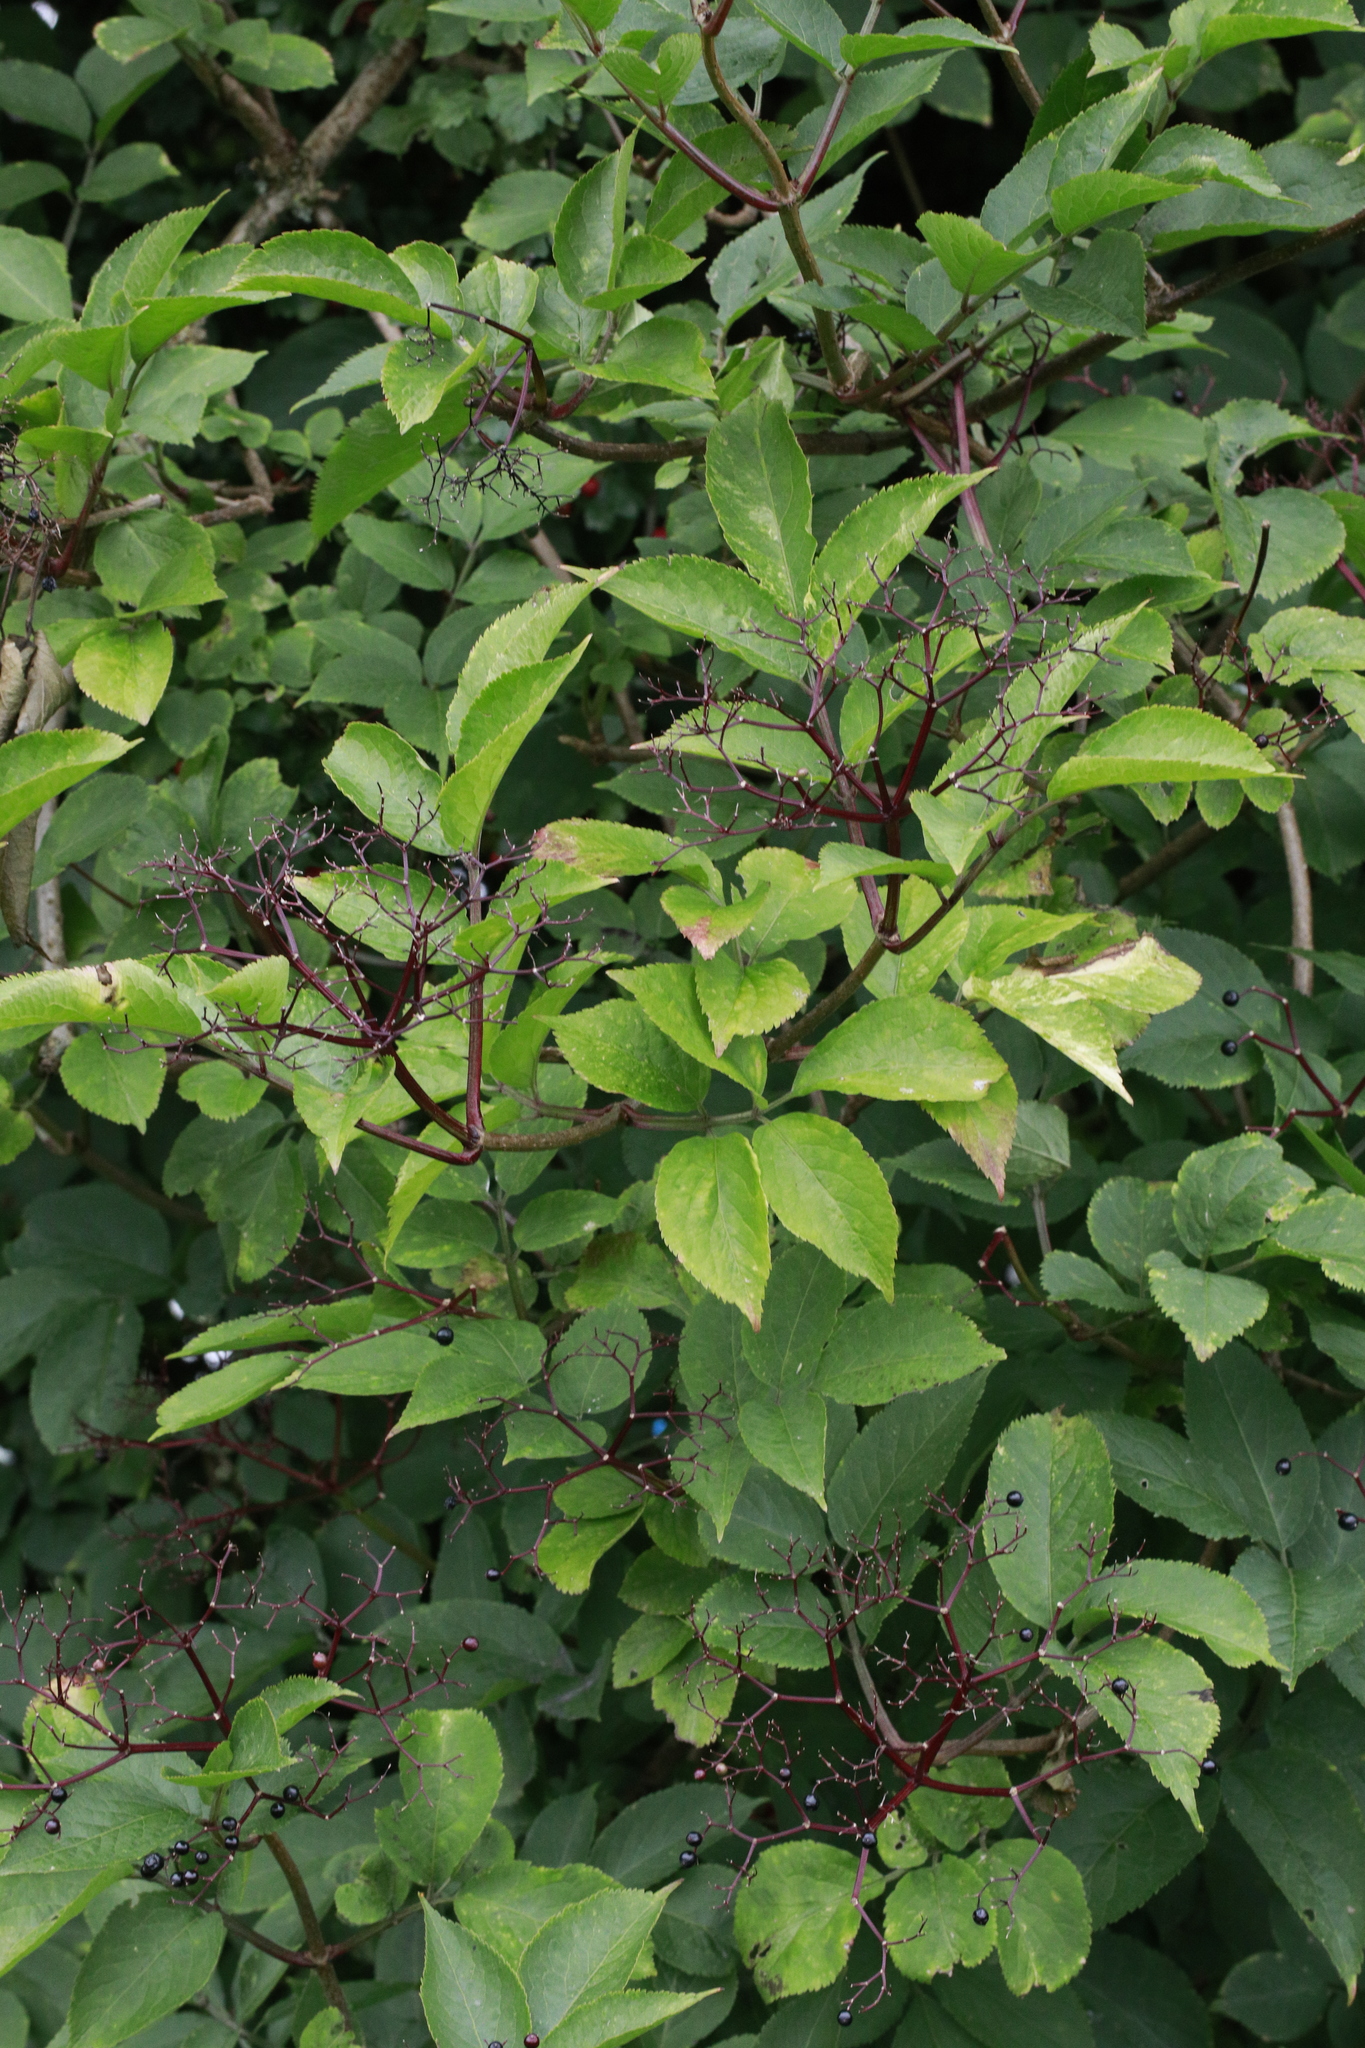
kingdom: Plantae
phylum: Tracheophyta
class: Magnoliopsida
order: Dipsacales
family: Viburnaceae
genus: Sambucus
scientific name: Sambucus nigra
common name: Elder
